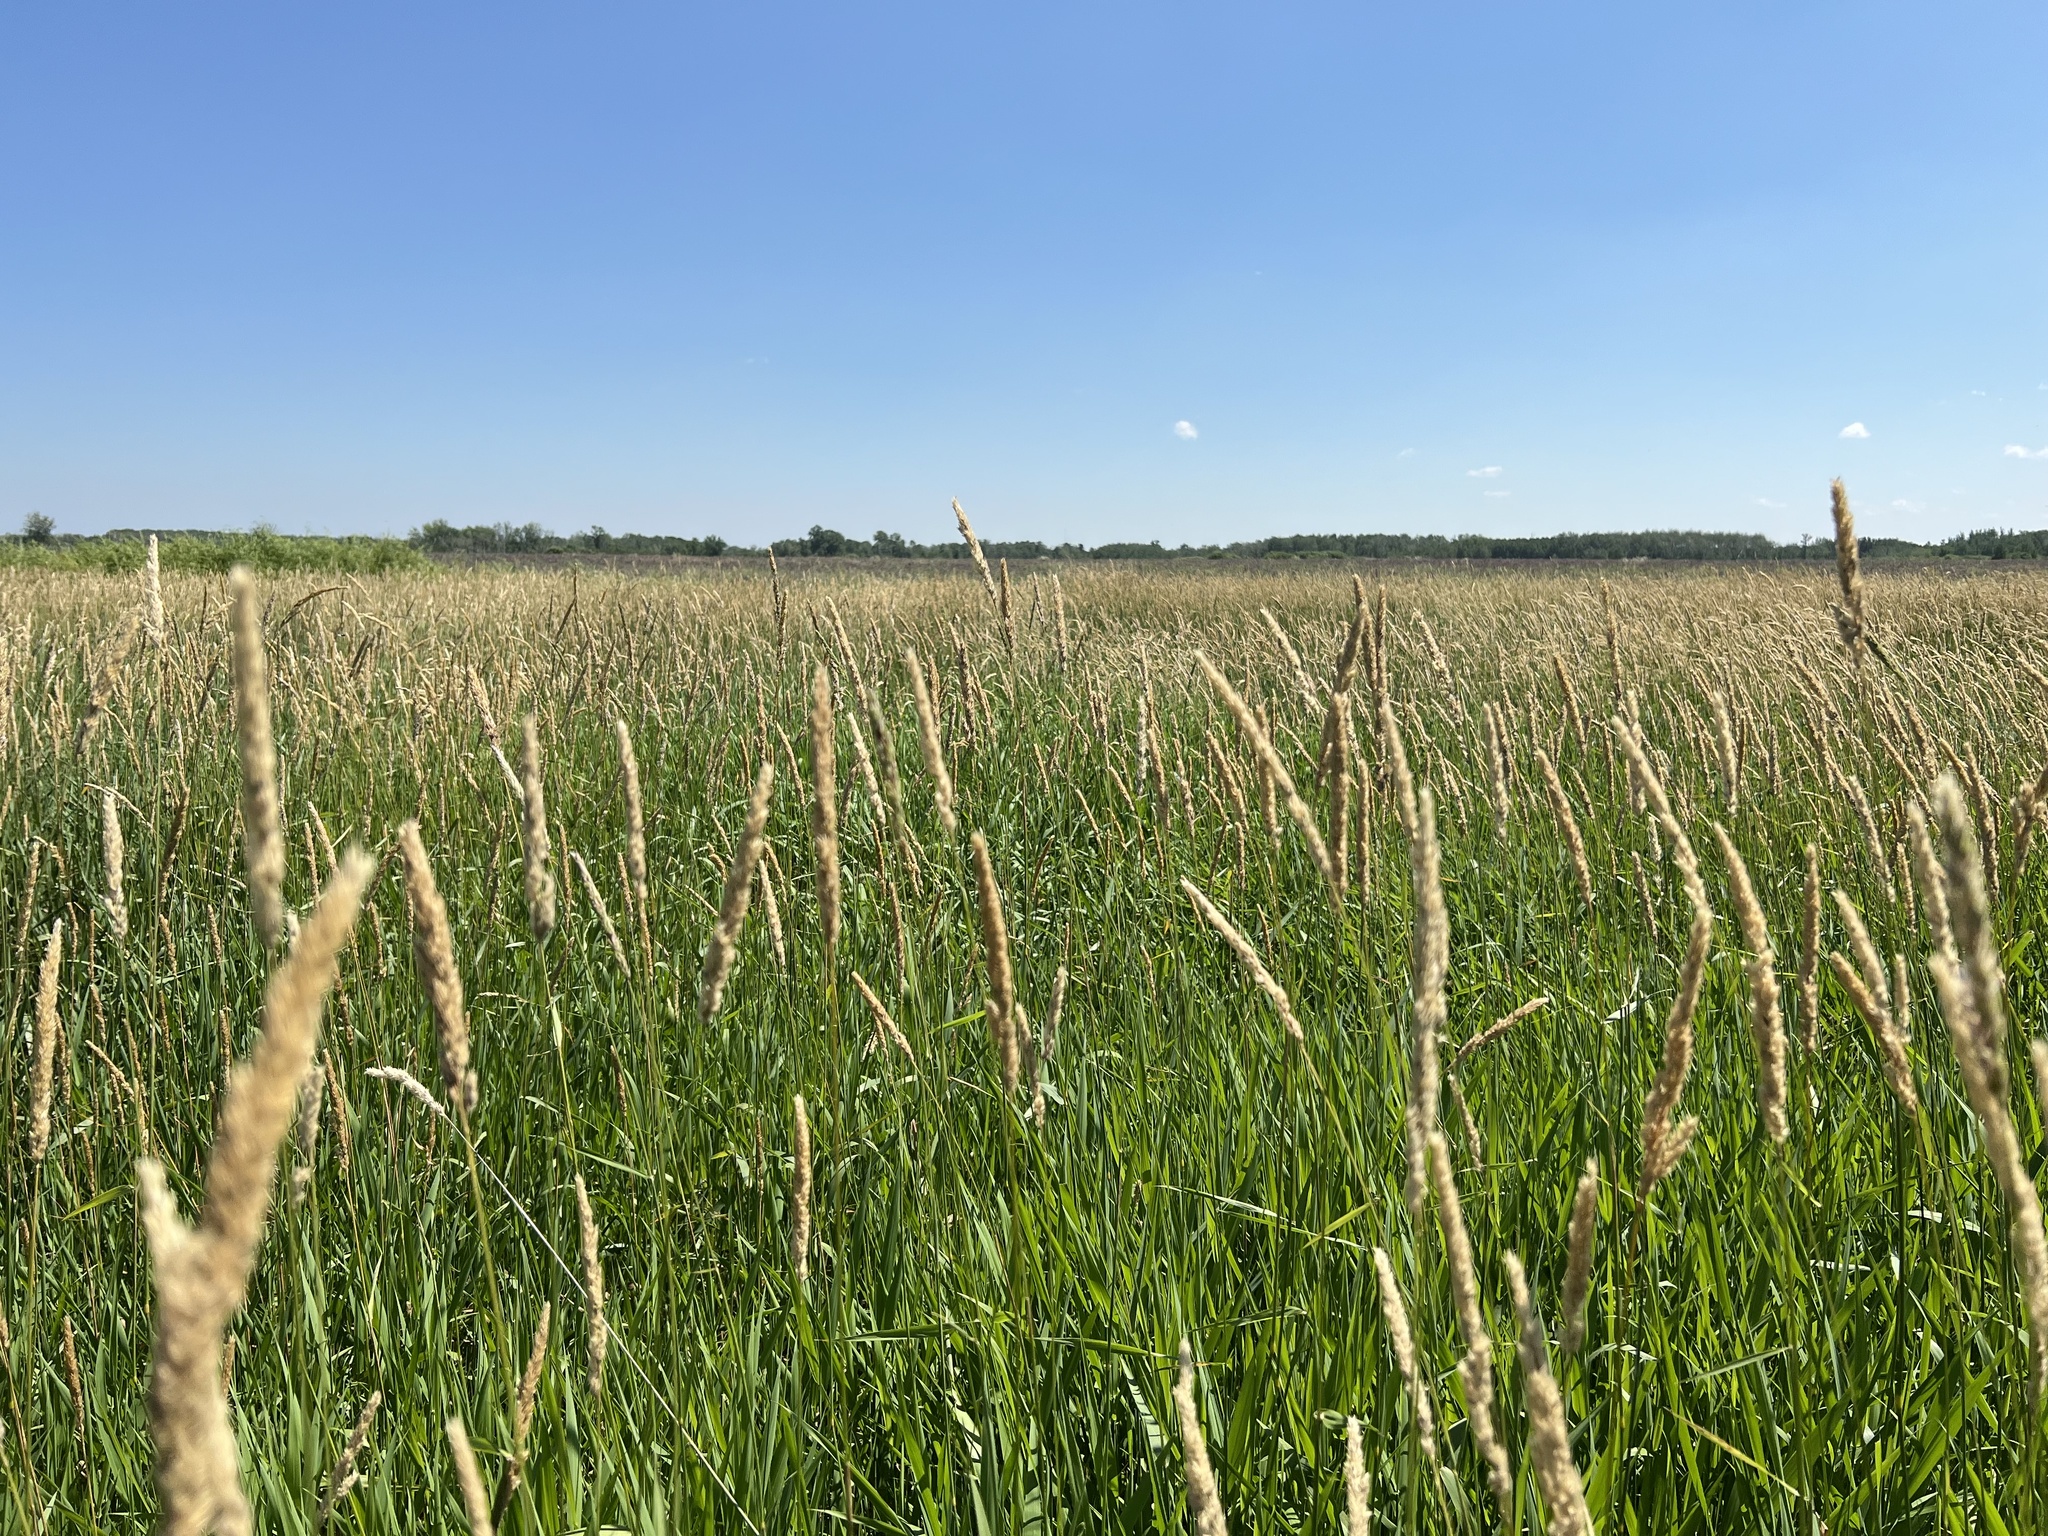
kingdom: Plantae
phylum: Tracheophyta
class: Liliopsida
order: Poales
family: Poaceae
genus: Phalaris
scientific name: Phalaris arundinacea
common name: Reed canary-grass
